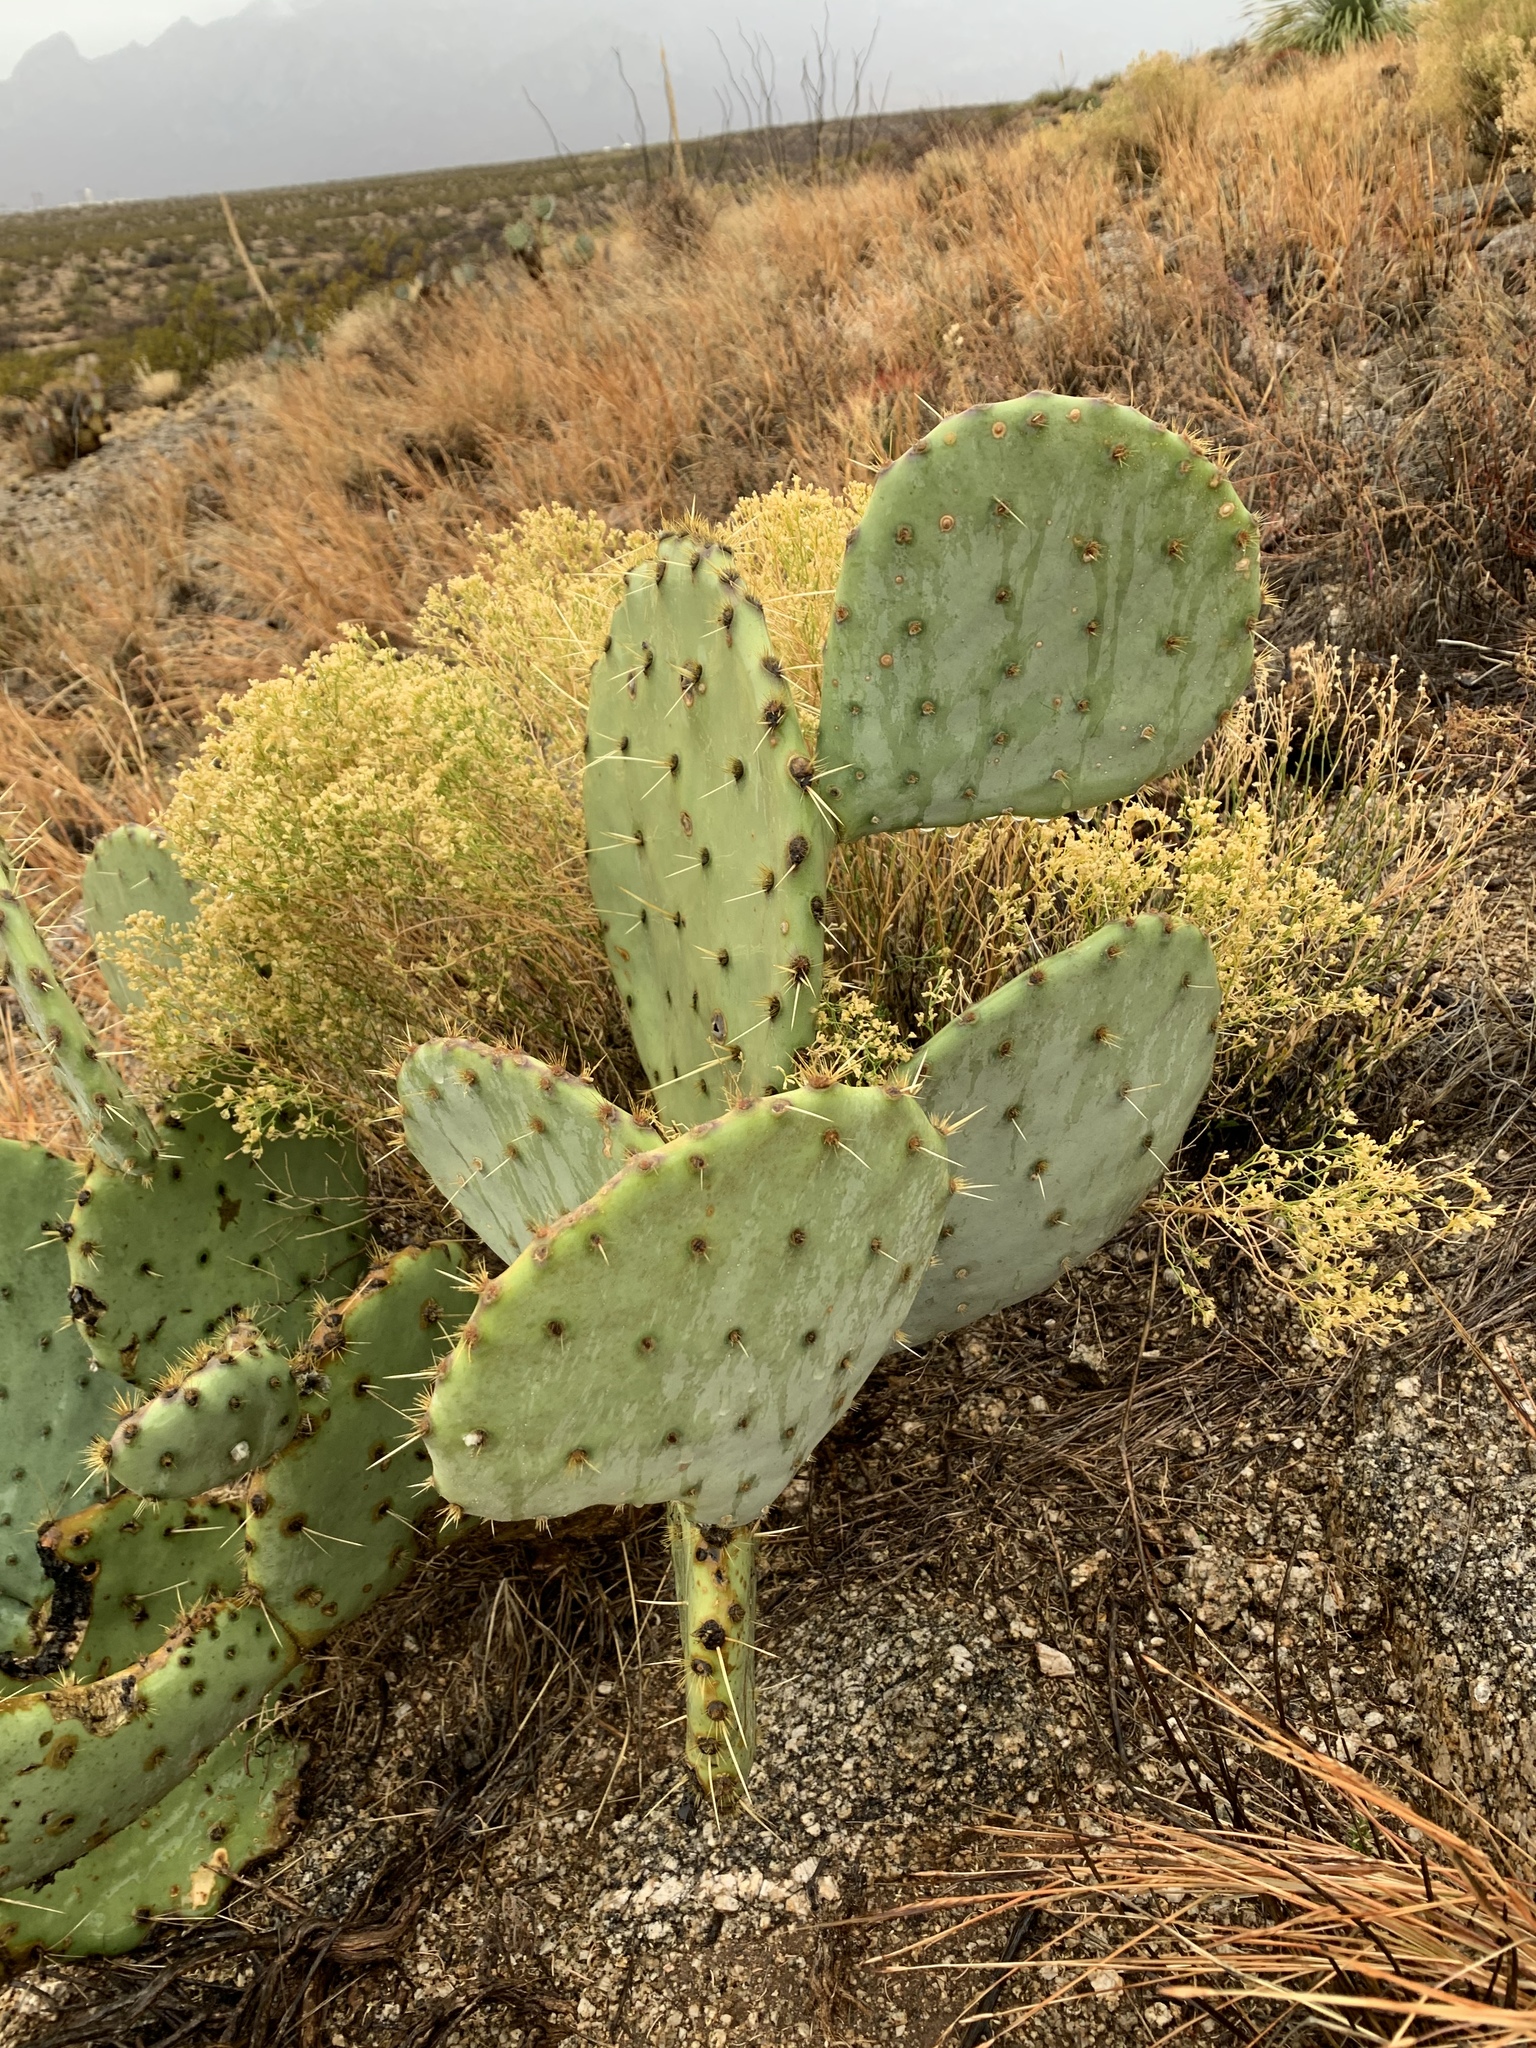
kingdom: Plantae
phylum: Tracheophyta
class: Magnoliopsida
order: Caryophyllales
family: Cactaceae
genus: Opuntia
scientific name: Opuntia engelmannii
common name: Cactus-apple
